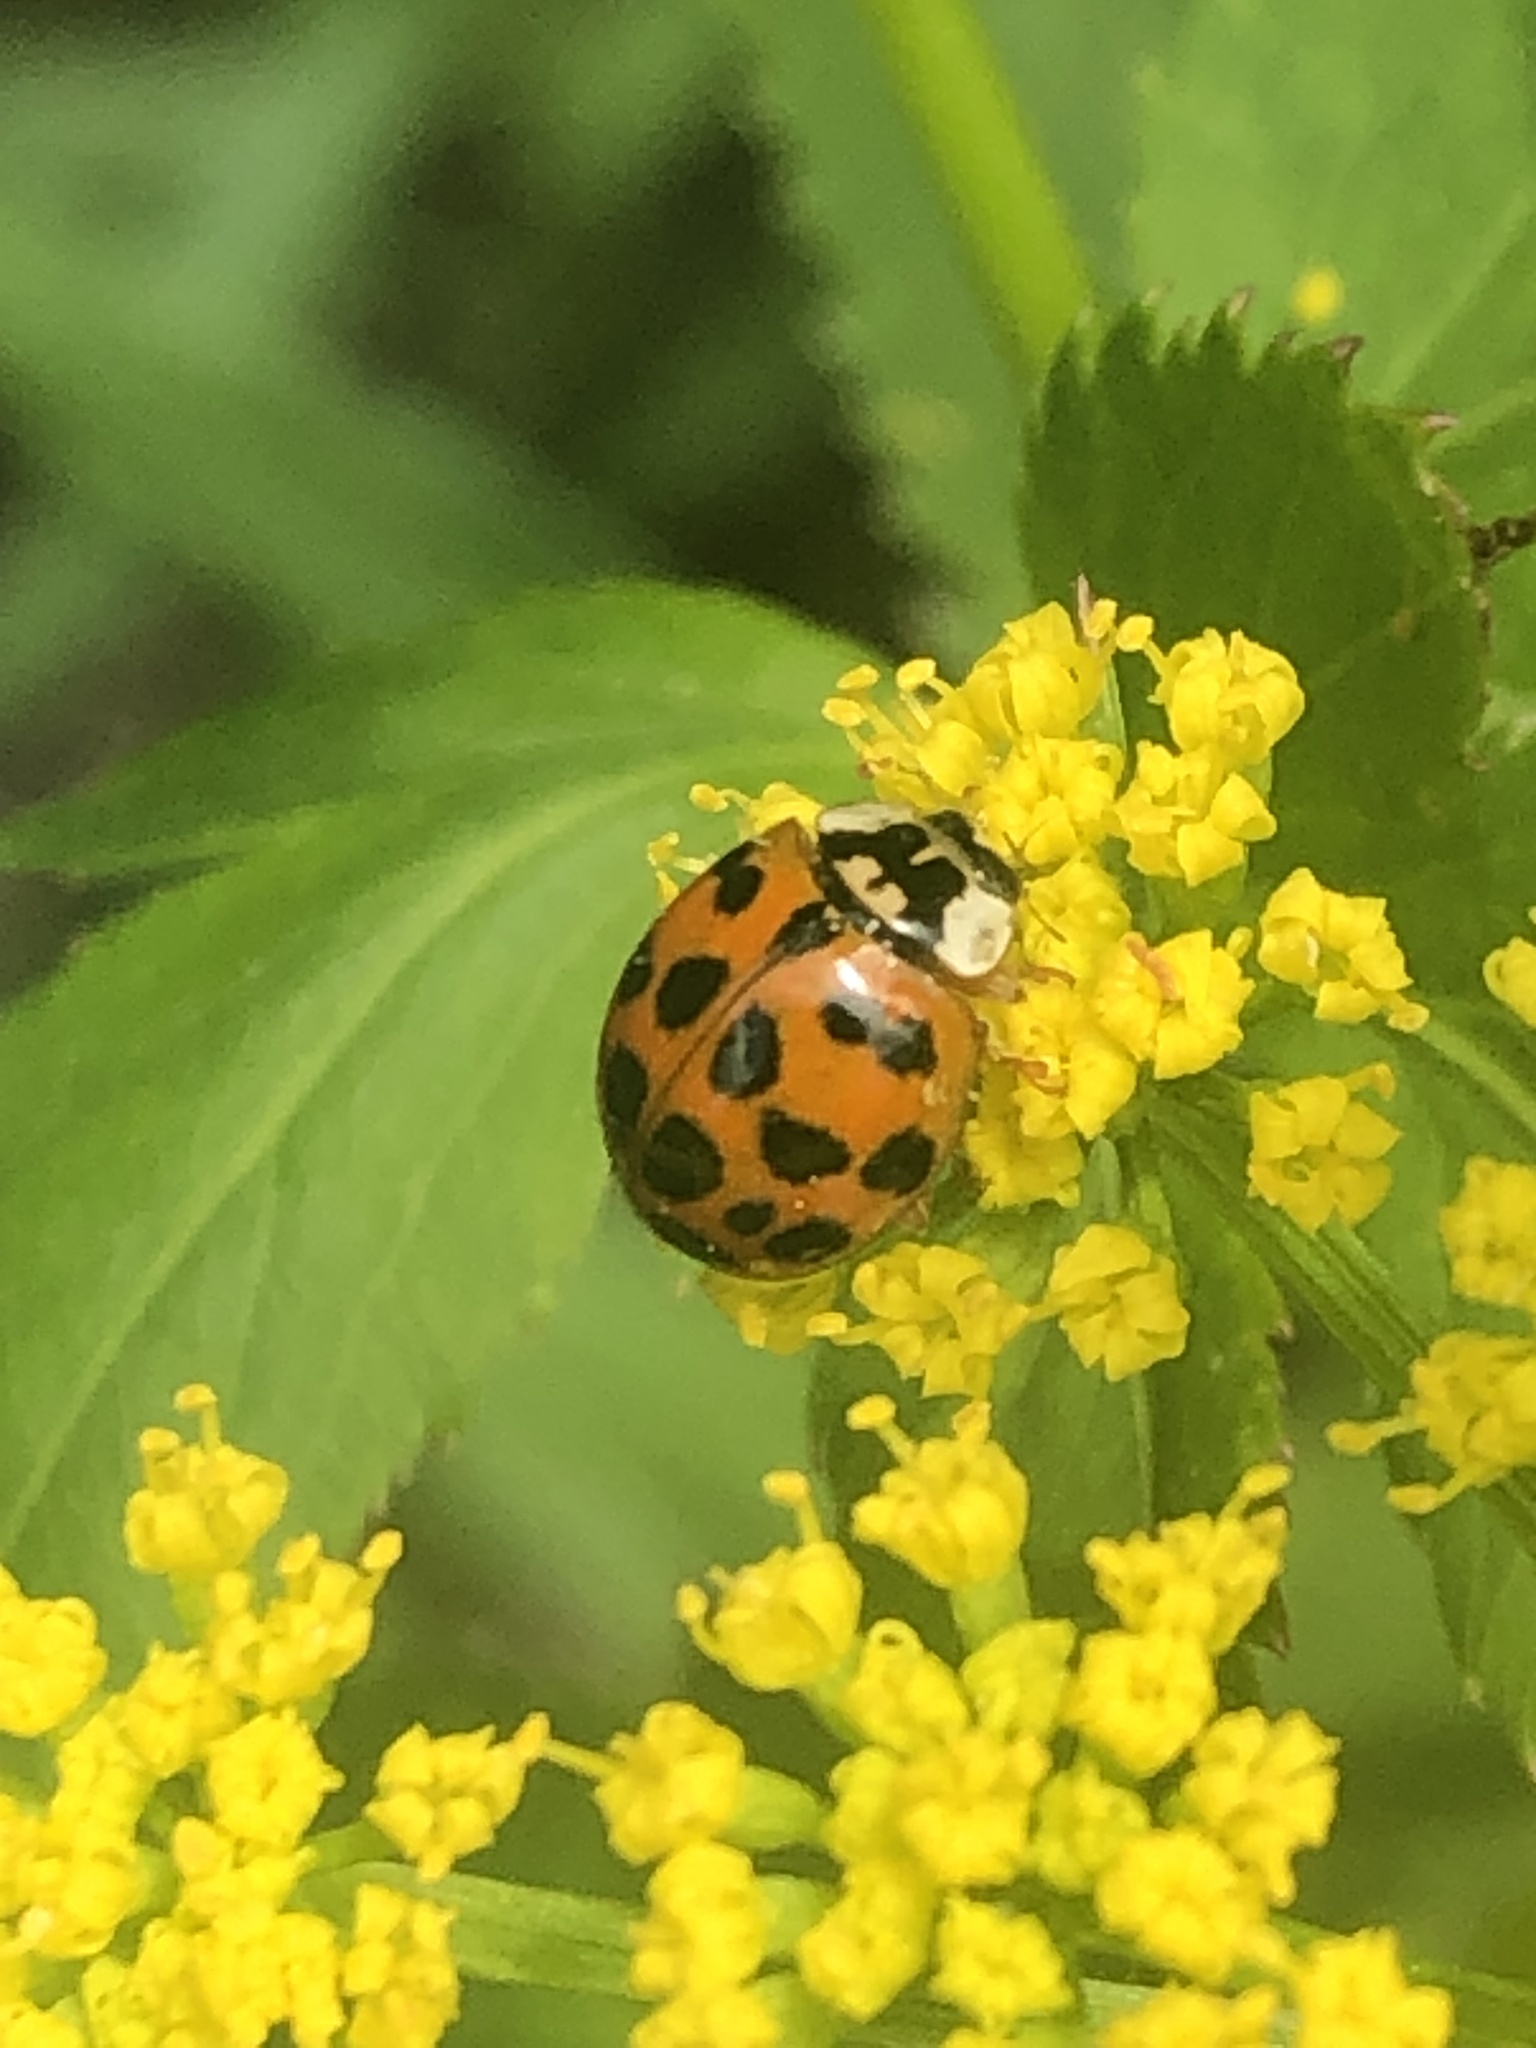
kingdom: Animalia
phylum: Arthropoda
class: Insecta
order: Coleoptera
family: Coccinellidae
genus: Harmonia
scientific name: Harmonia axyridis
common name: Harlequin ladybird
